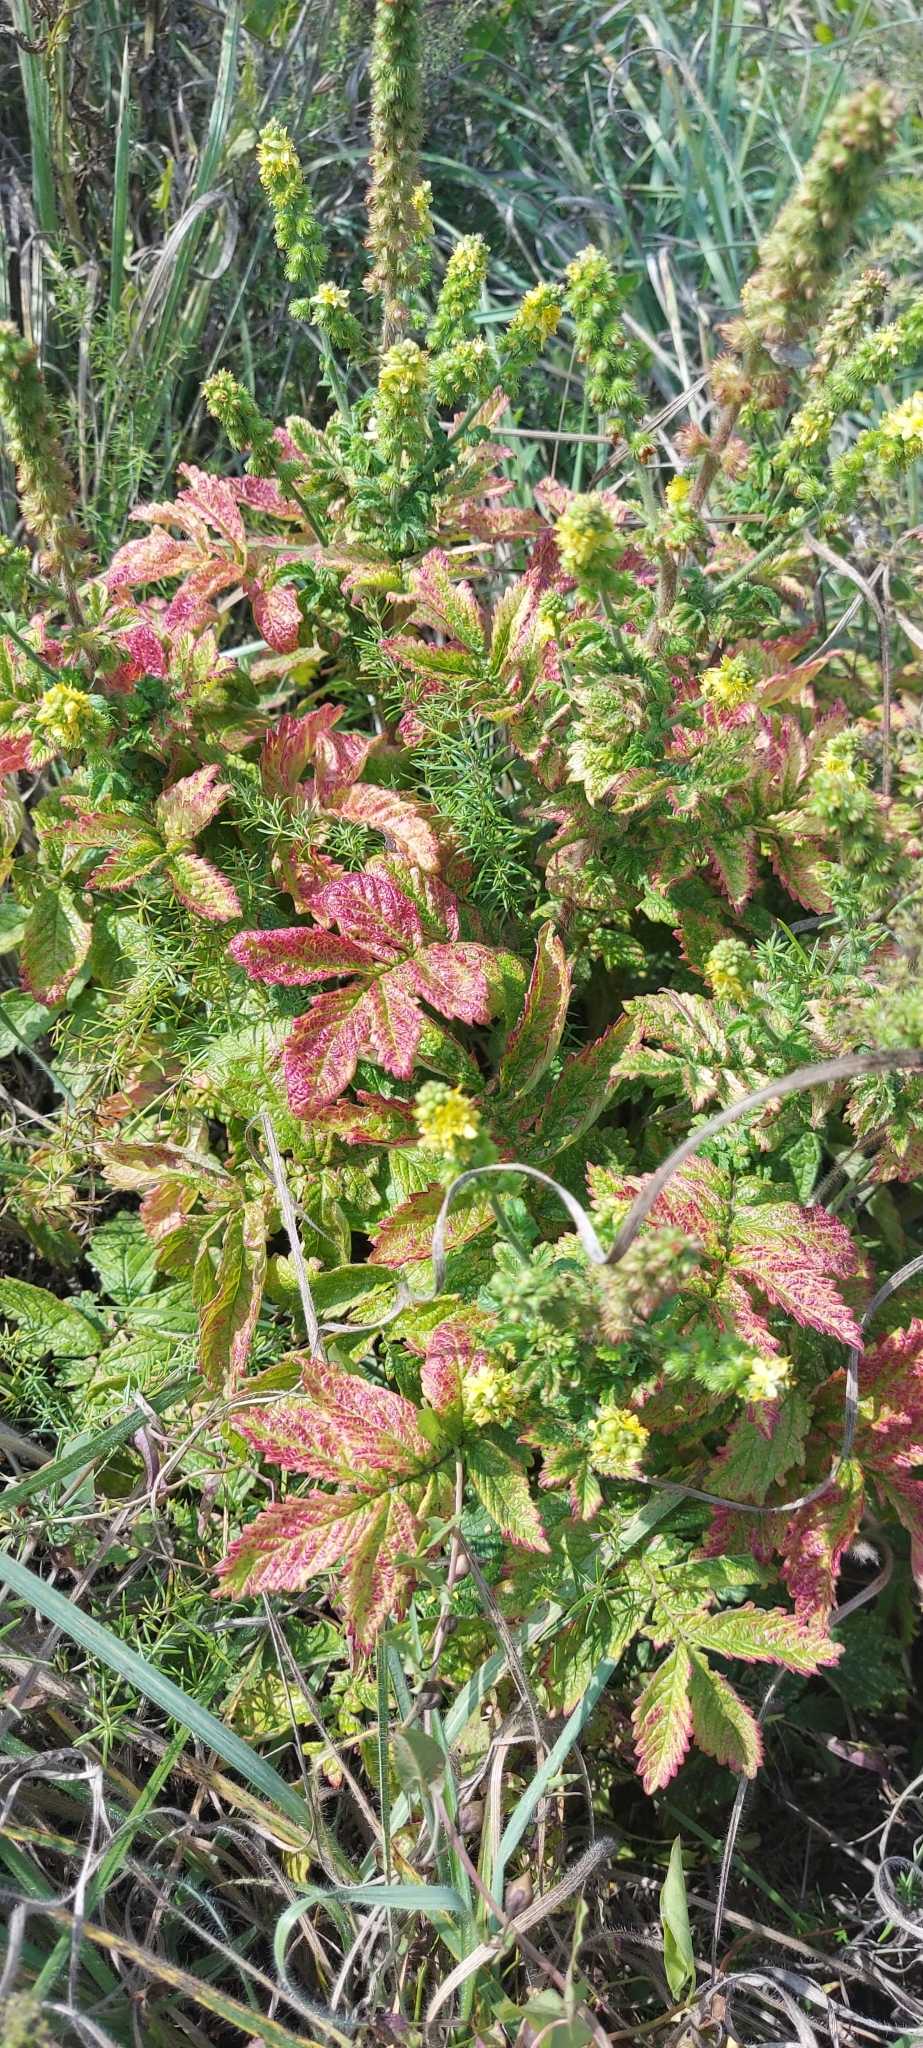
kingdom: Plantae
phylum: Tracheophyta
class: Magnoliopsida
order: Rosales
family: Rosaceae
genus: Agrimonia
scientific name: Agrimonia eupatoria
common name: Agrimony
